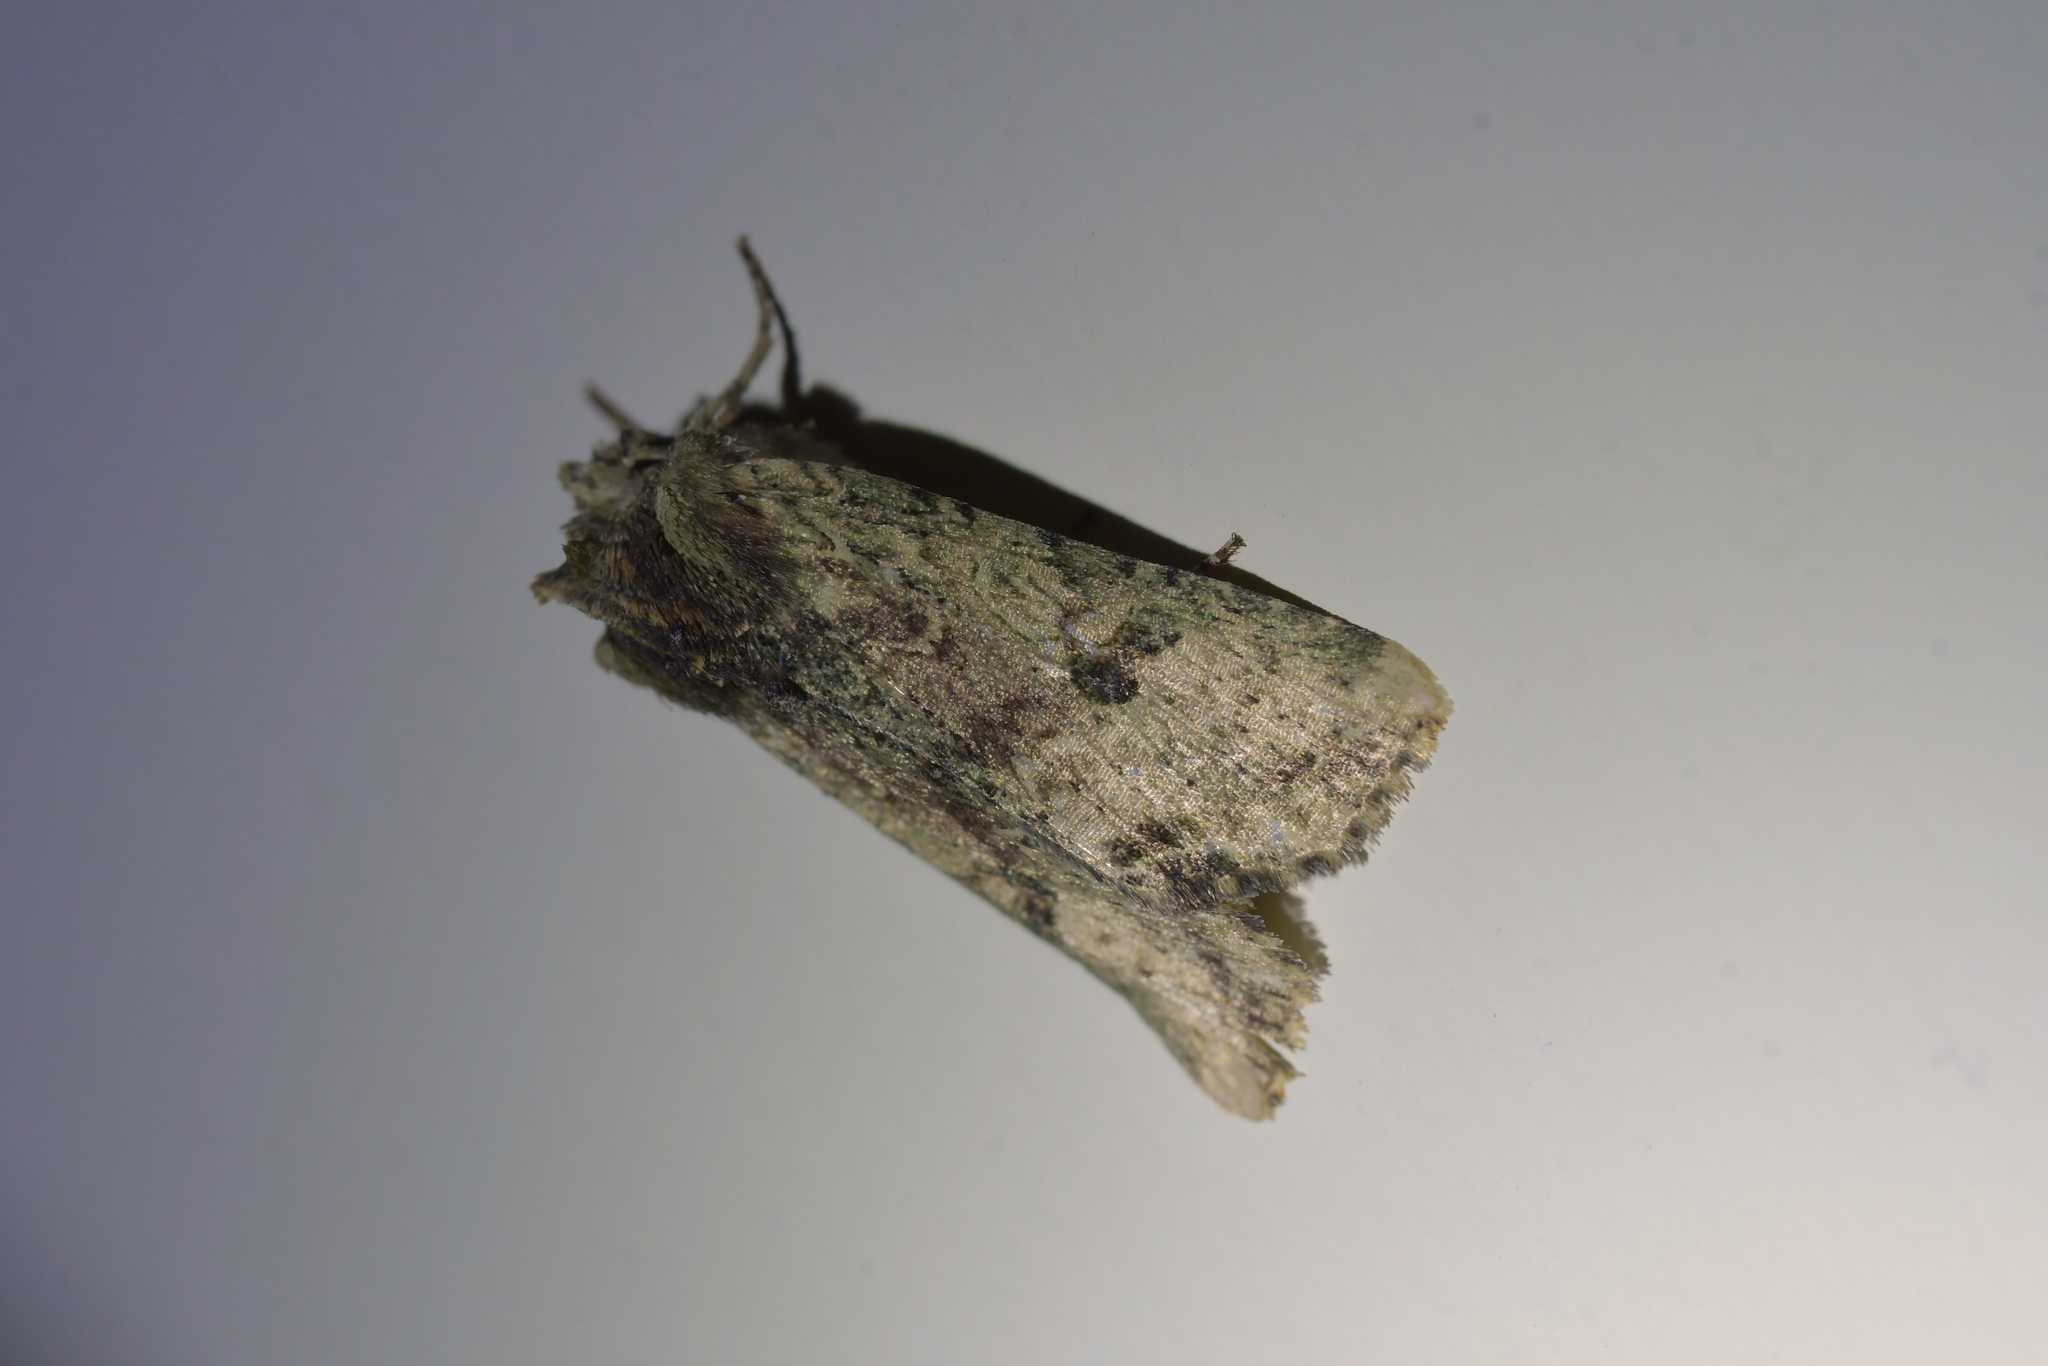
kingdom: Animalia
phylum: Arthropoda
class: Insecta
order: Lepidoptera
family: Noctuidae
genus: Meterana
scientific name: Meterana coeleno
